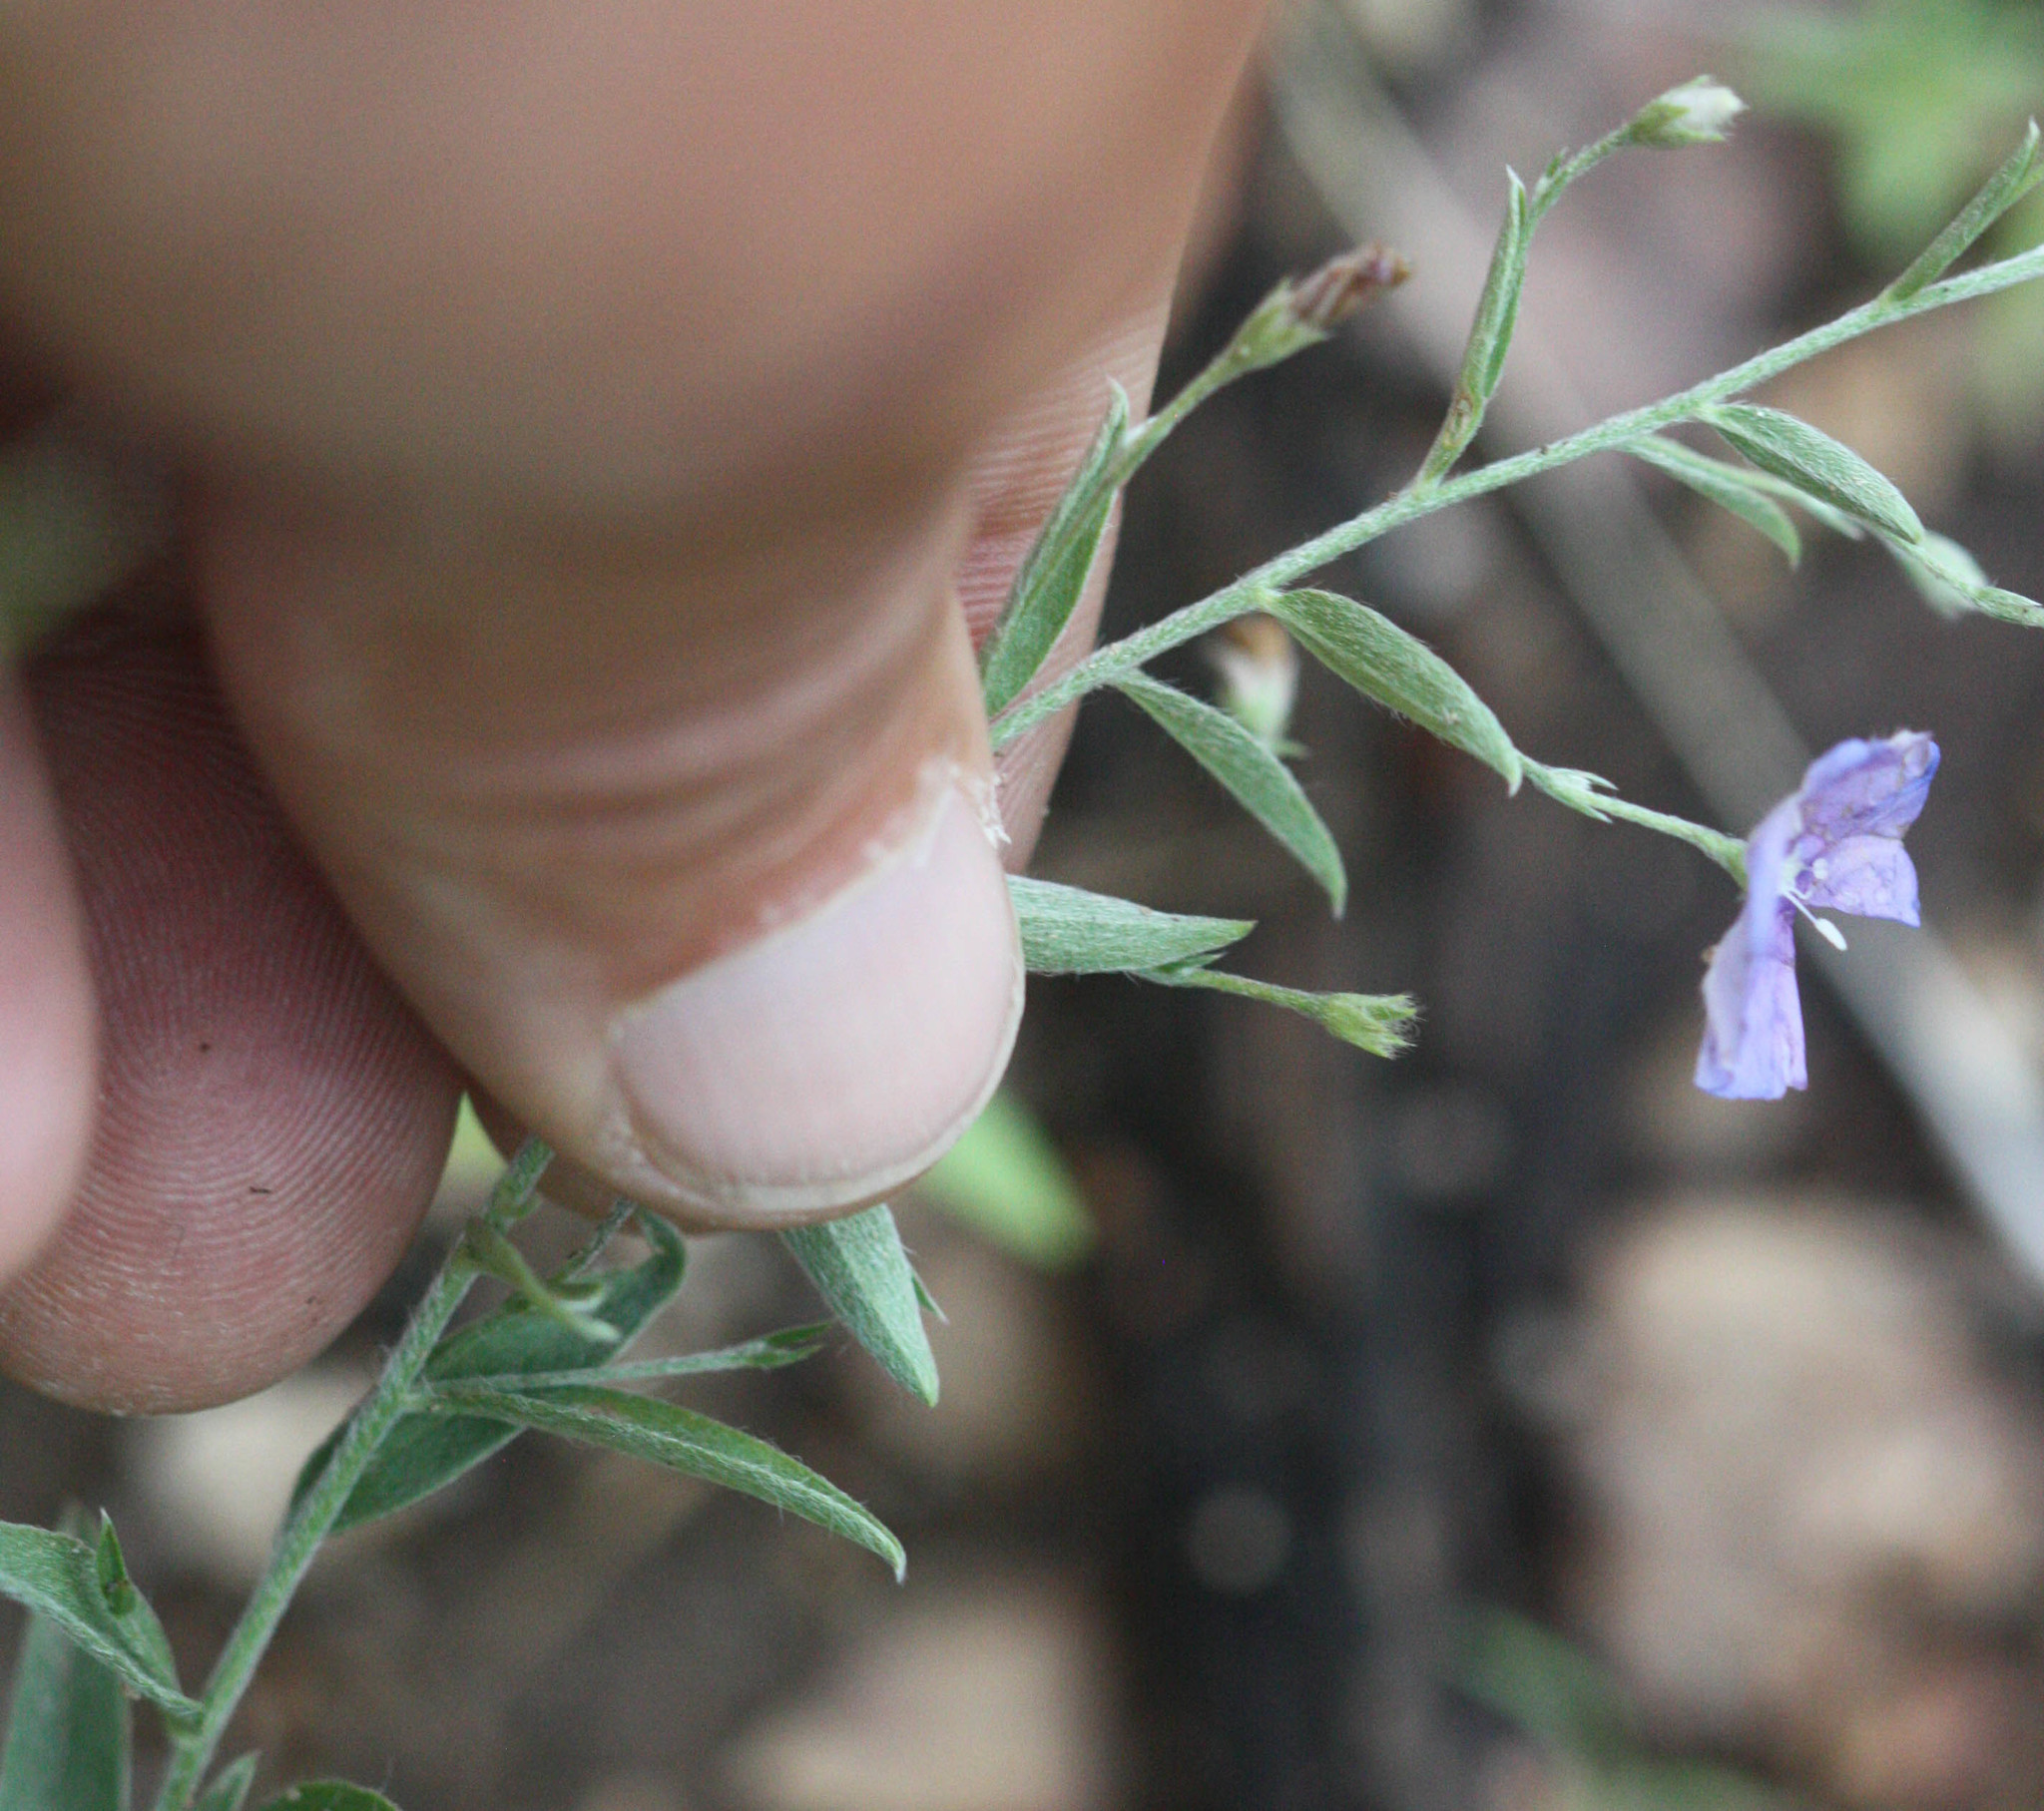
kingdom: Plantae
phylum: Tracheophyta
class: Magnoliopsida
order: Solanales
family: Convolvulaceae
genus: Evolvulus
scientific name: Evolvulus arizonicus
